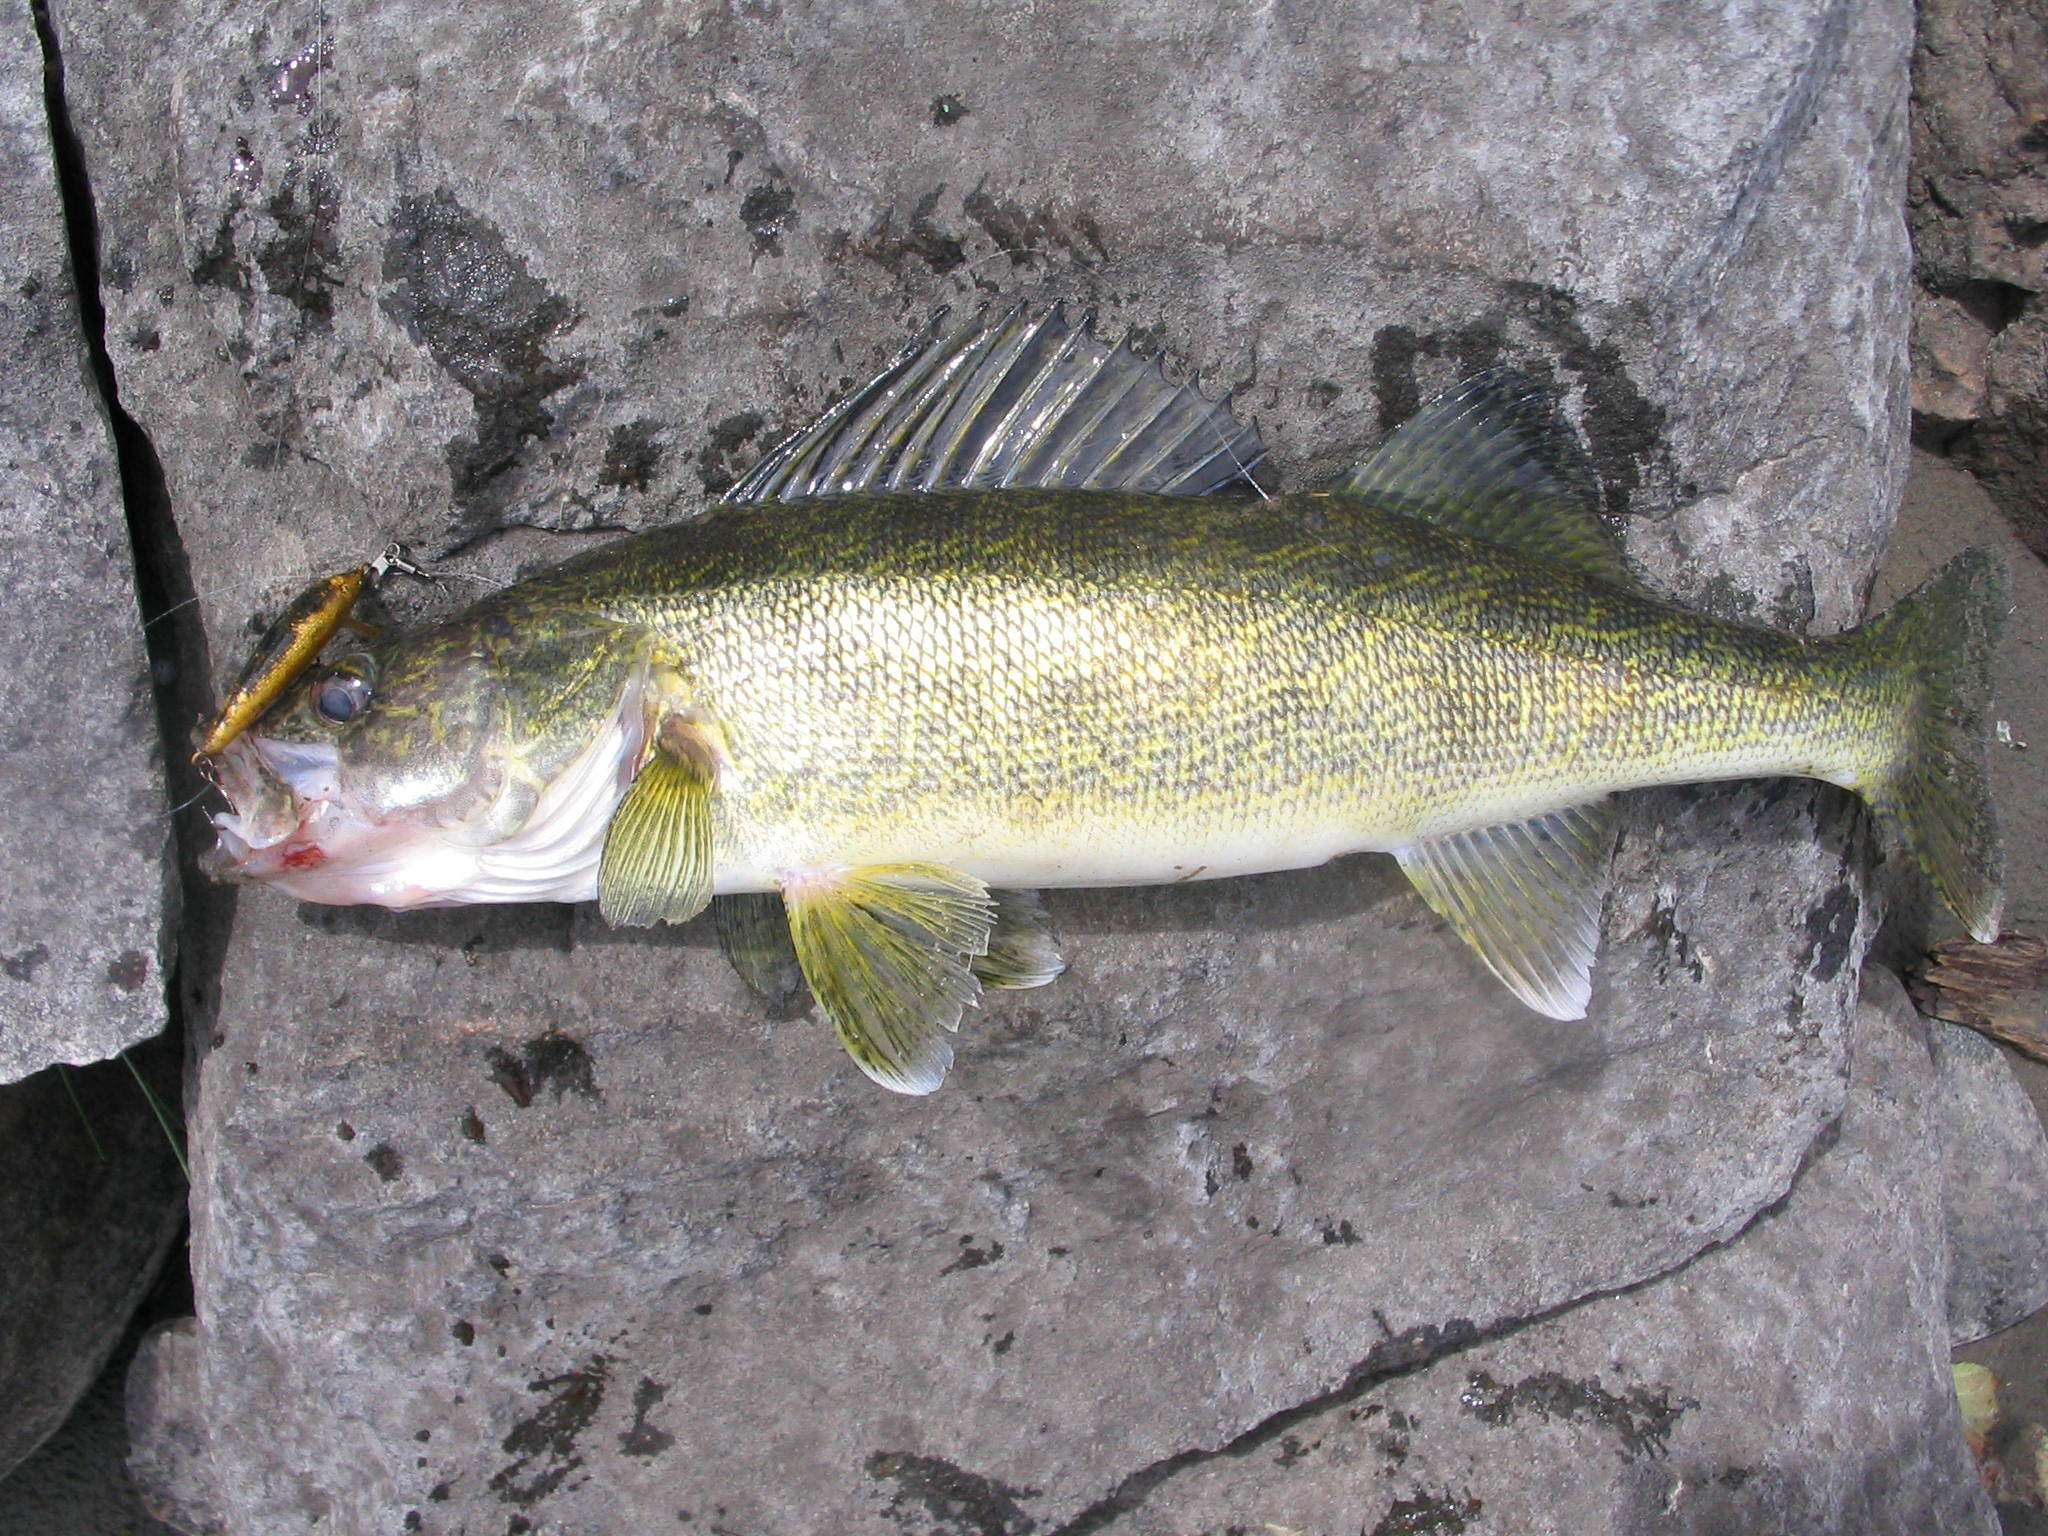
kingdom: Animalia
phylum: Chordata
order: Perciformes
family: Percidae
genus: Sander
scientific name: Sander vitreus
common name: Walleye
